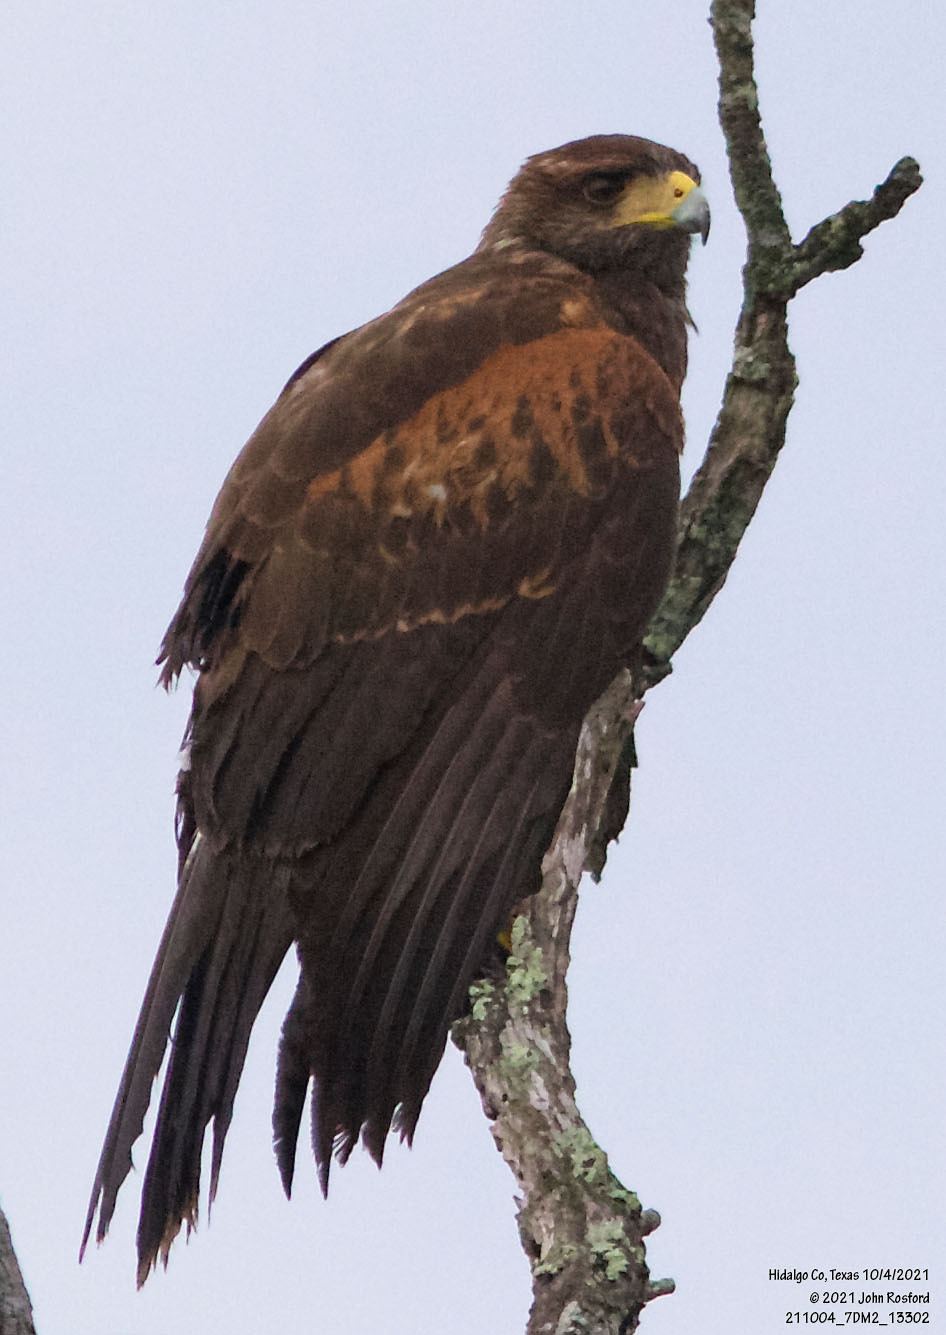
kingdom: Animalia
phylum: Chordata
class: Aves
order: Accipitriformes
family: Accipitridae
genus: Parabuteo
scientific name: Parabuteo unicinctus
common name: Harris's hawk
